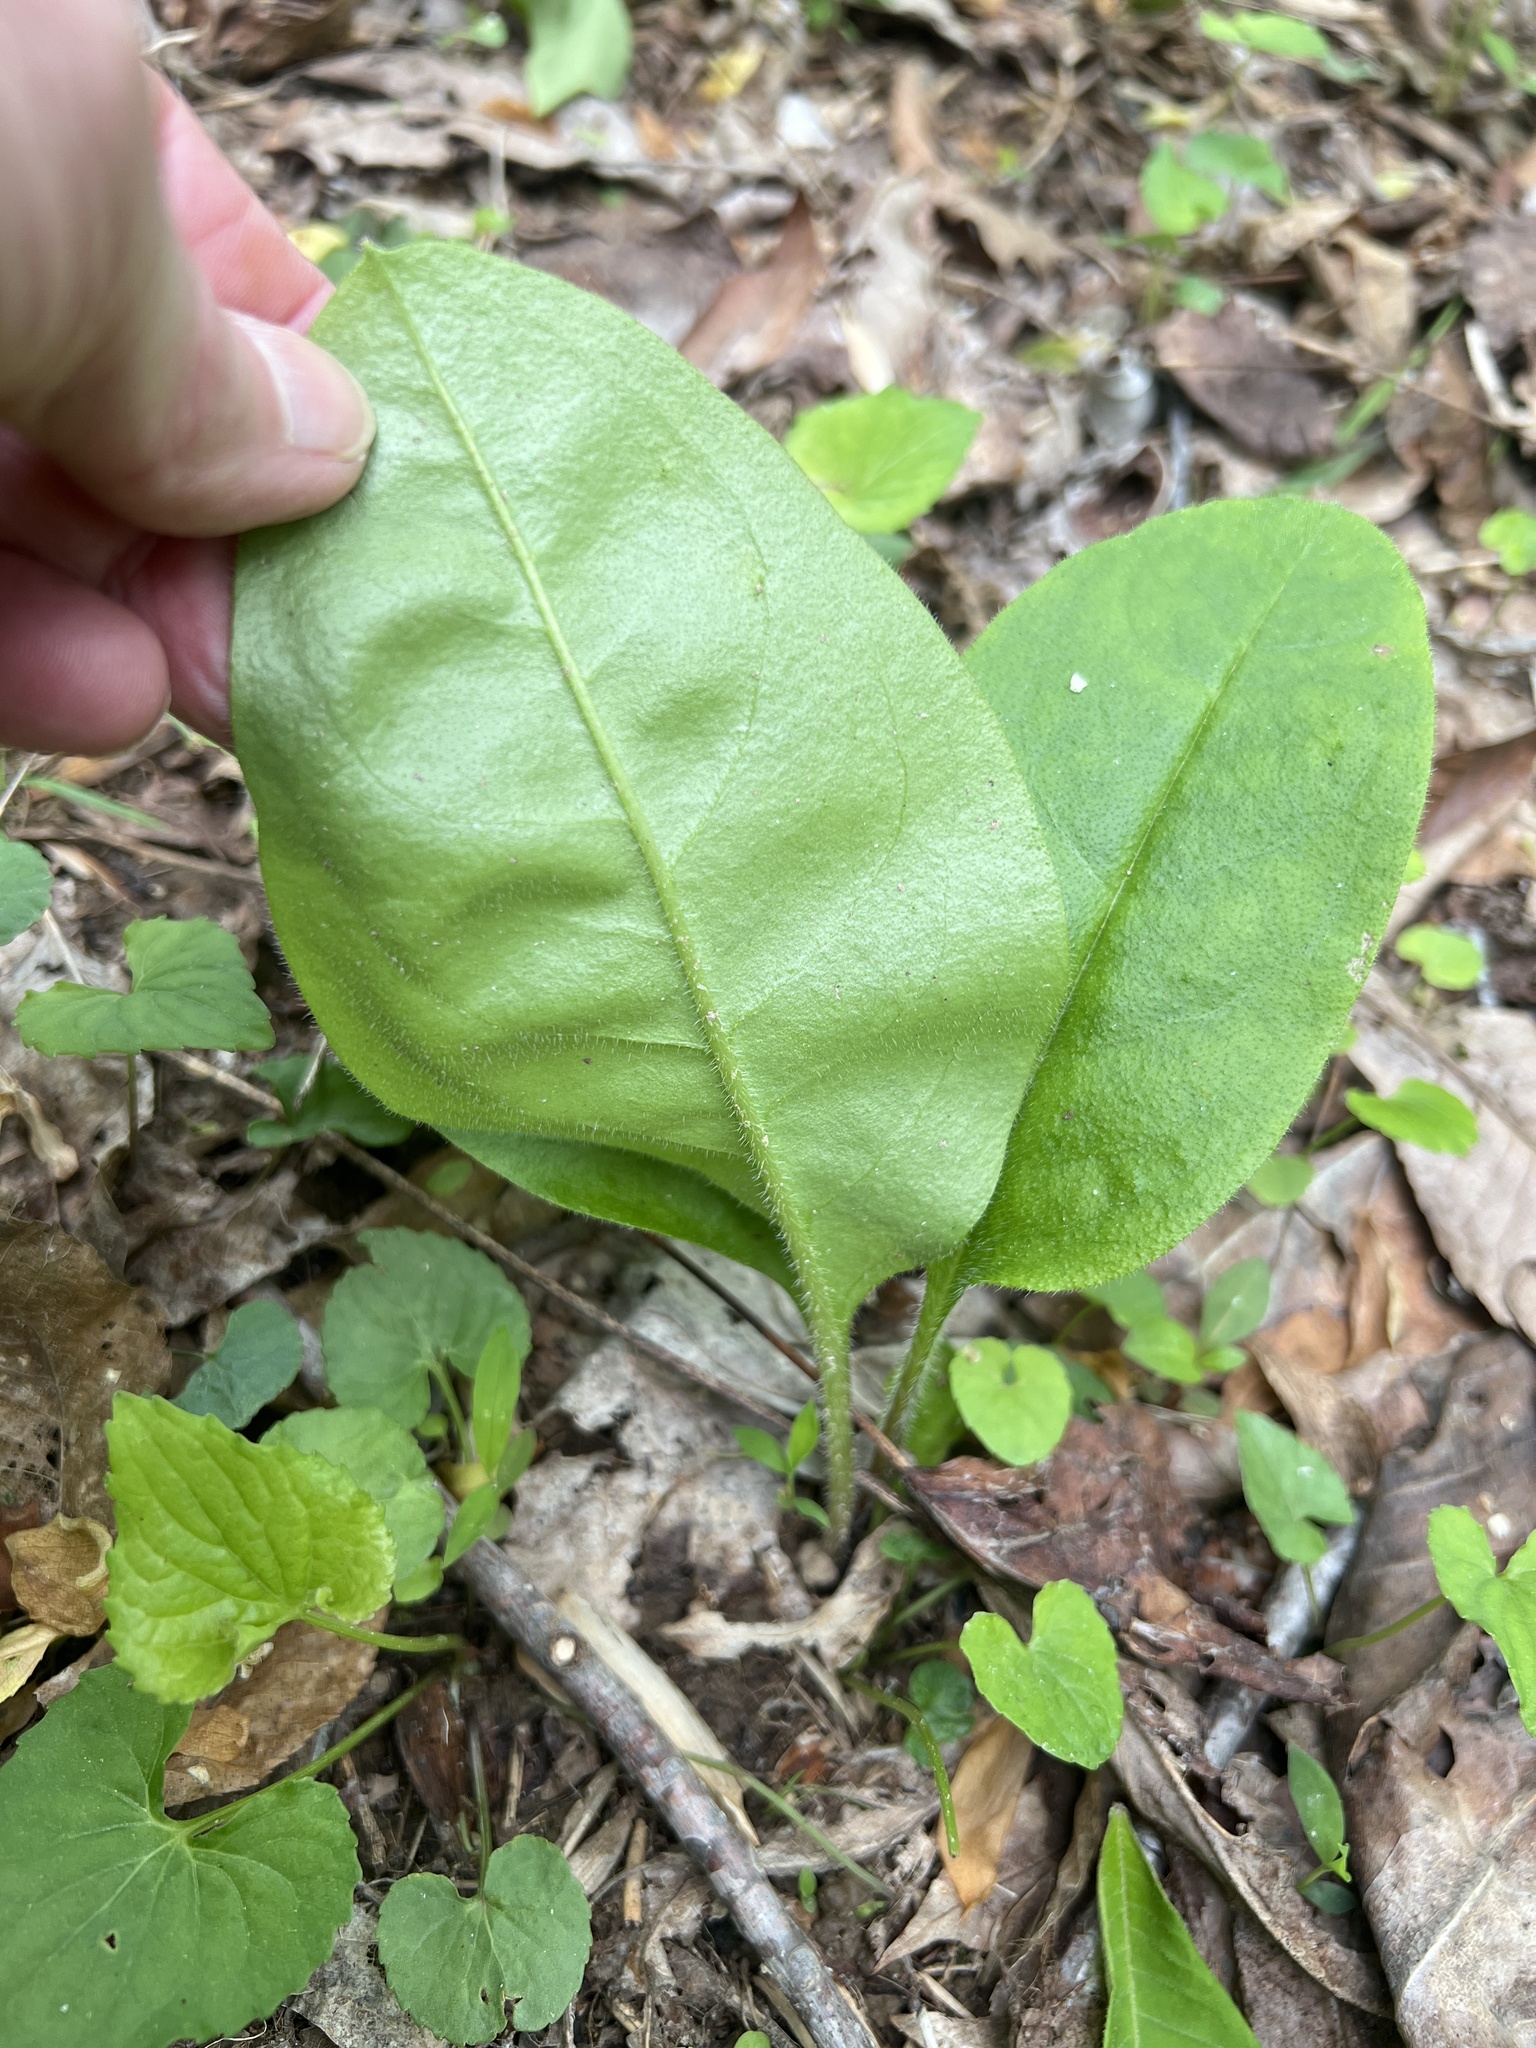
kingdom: Plantae
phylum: Tracheophyta
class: Magnoliopsida
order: Boraginales
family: Boraginaceae
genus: Andersonglossum
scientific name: Andersonglossum virginianum
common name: Wild comfrey
